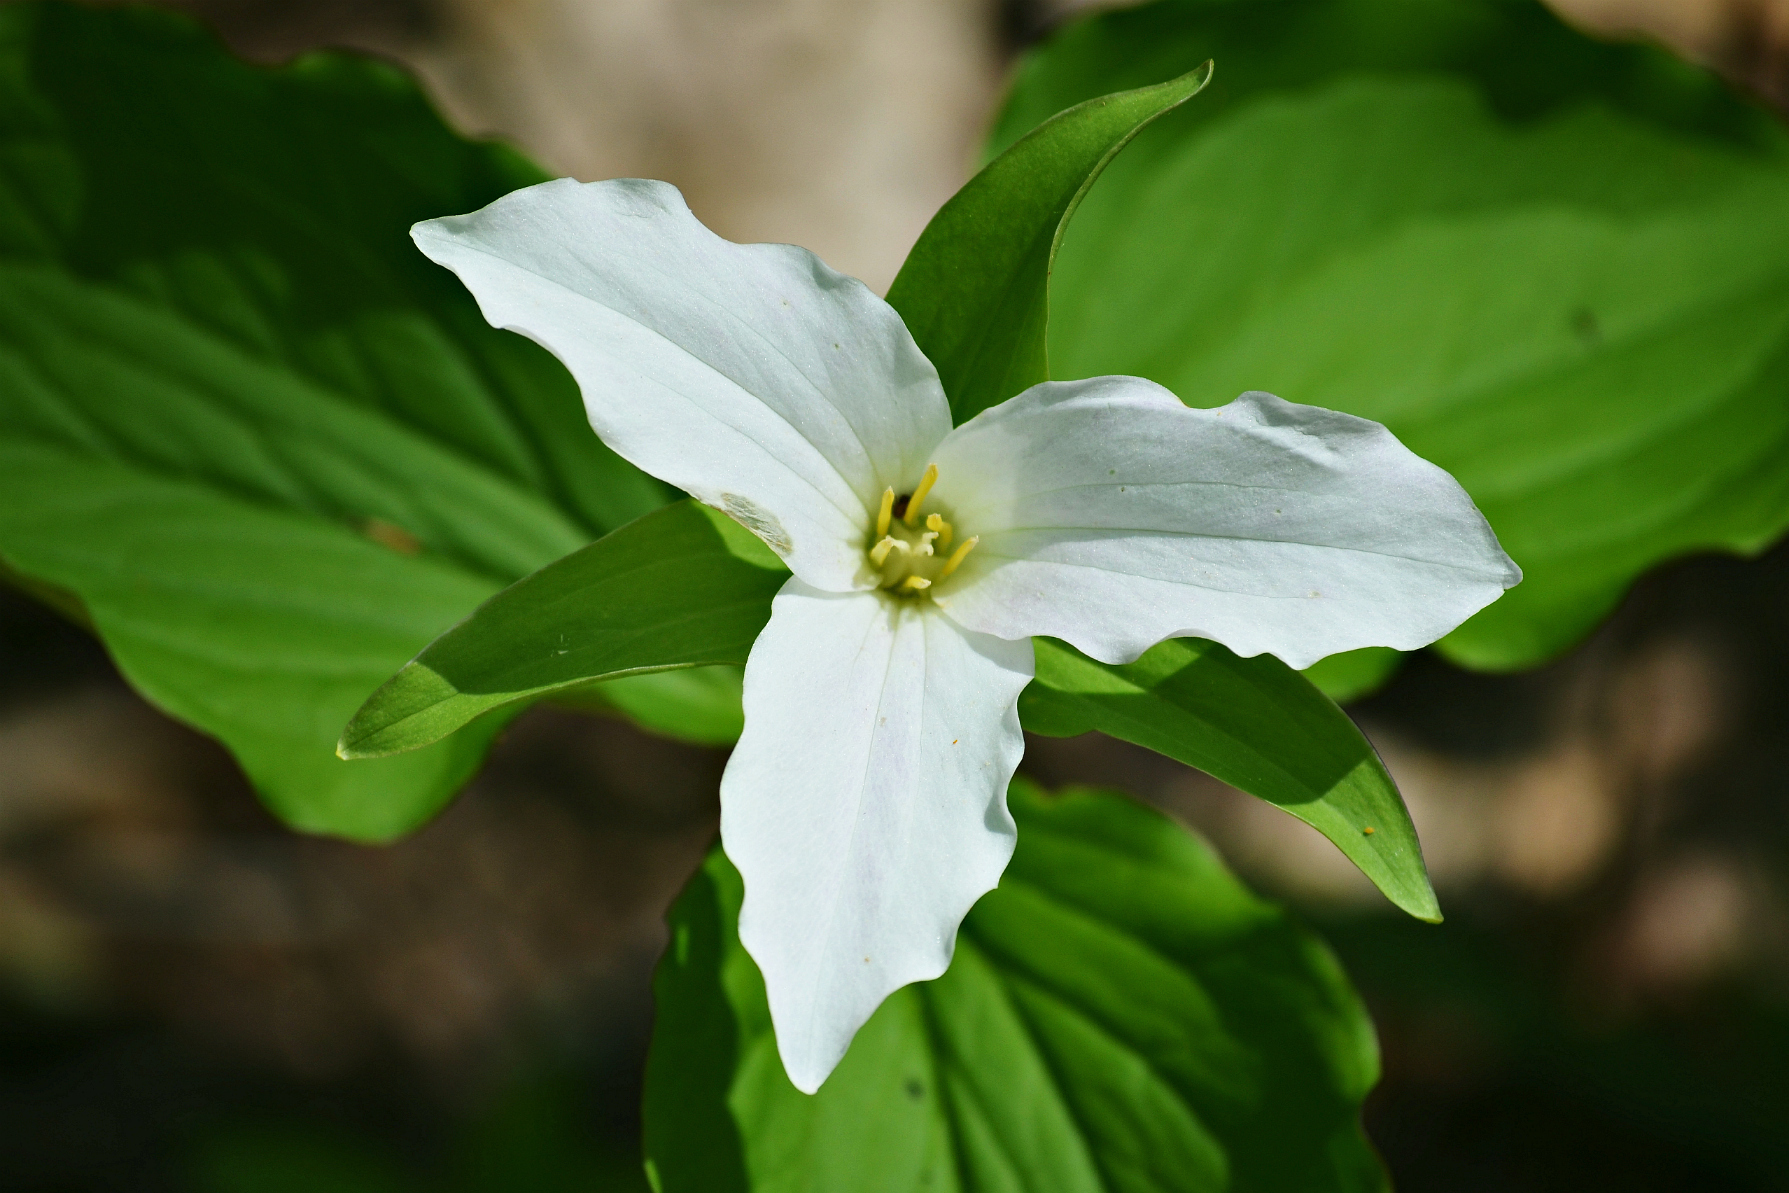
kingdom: Plantae
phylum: Tracheophyta
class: Liliopsida
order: Liliales
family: Melanthiaceae
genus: Trillium
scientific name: Trillium grandiflorum
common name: Great white trillium
